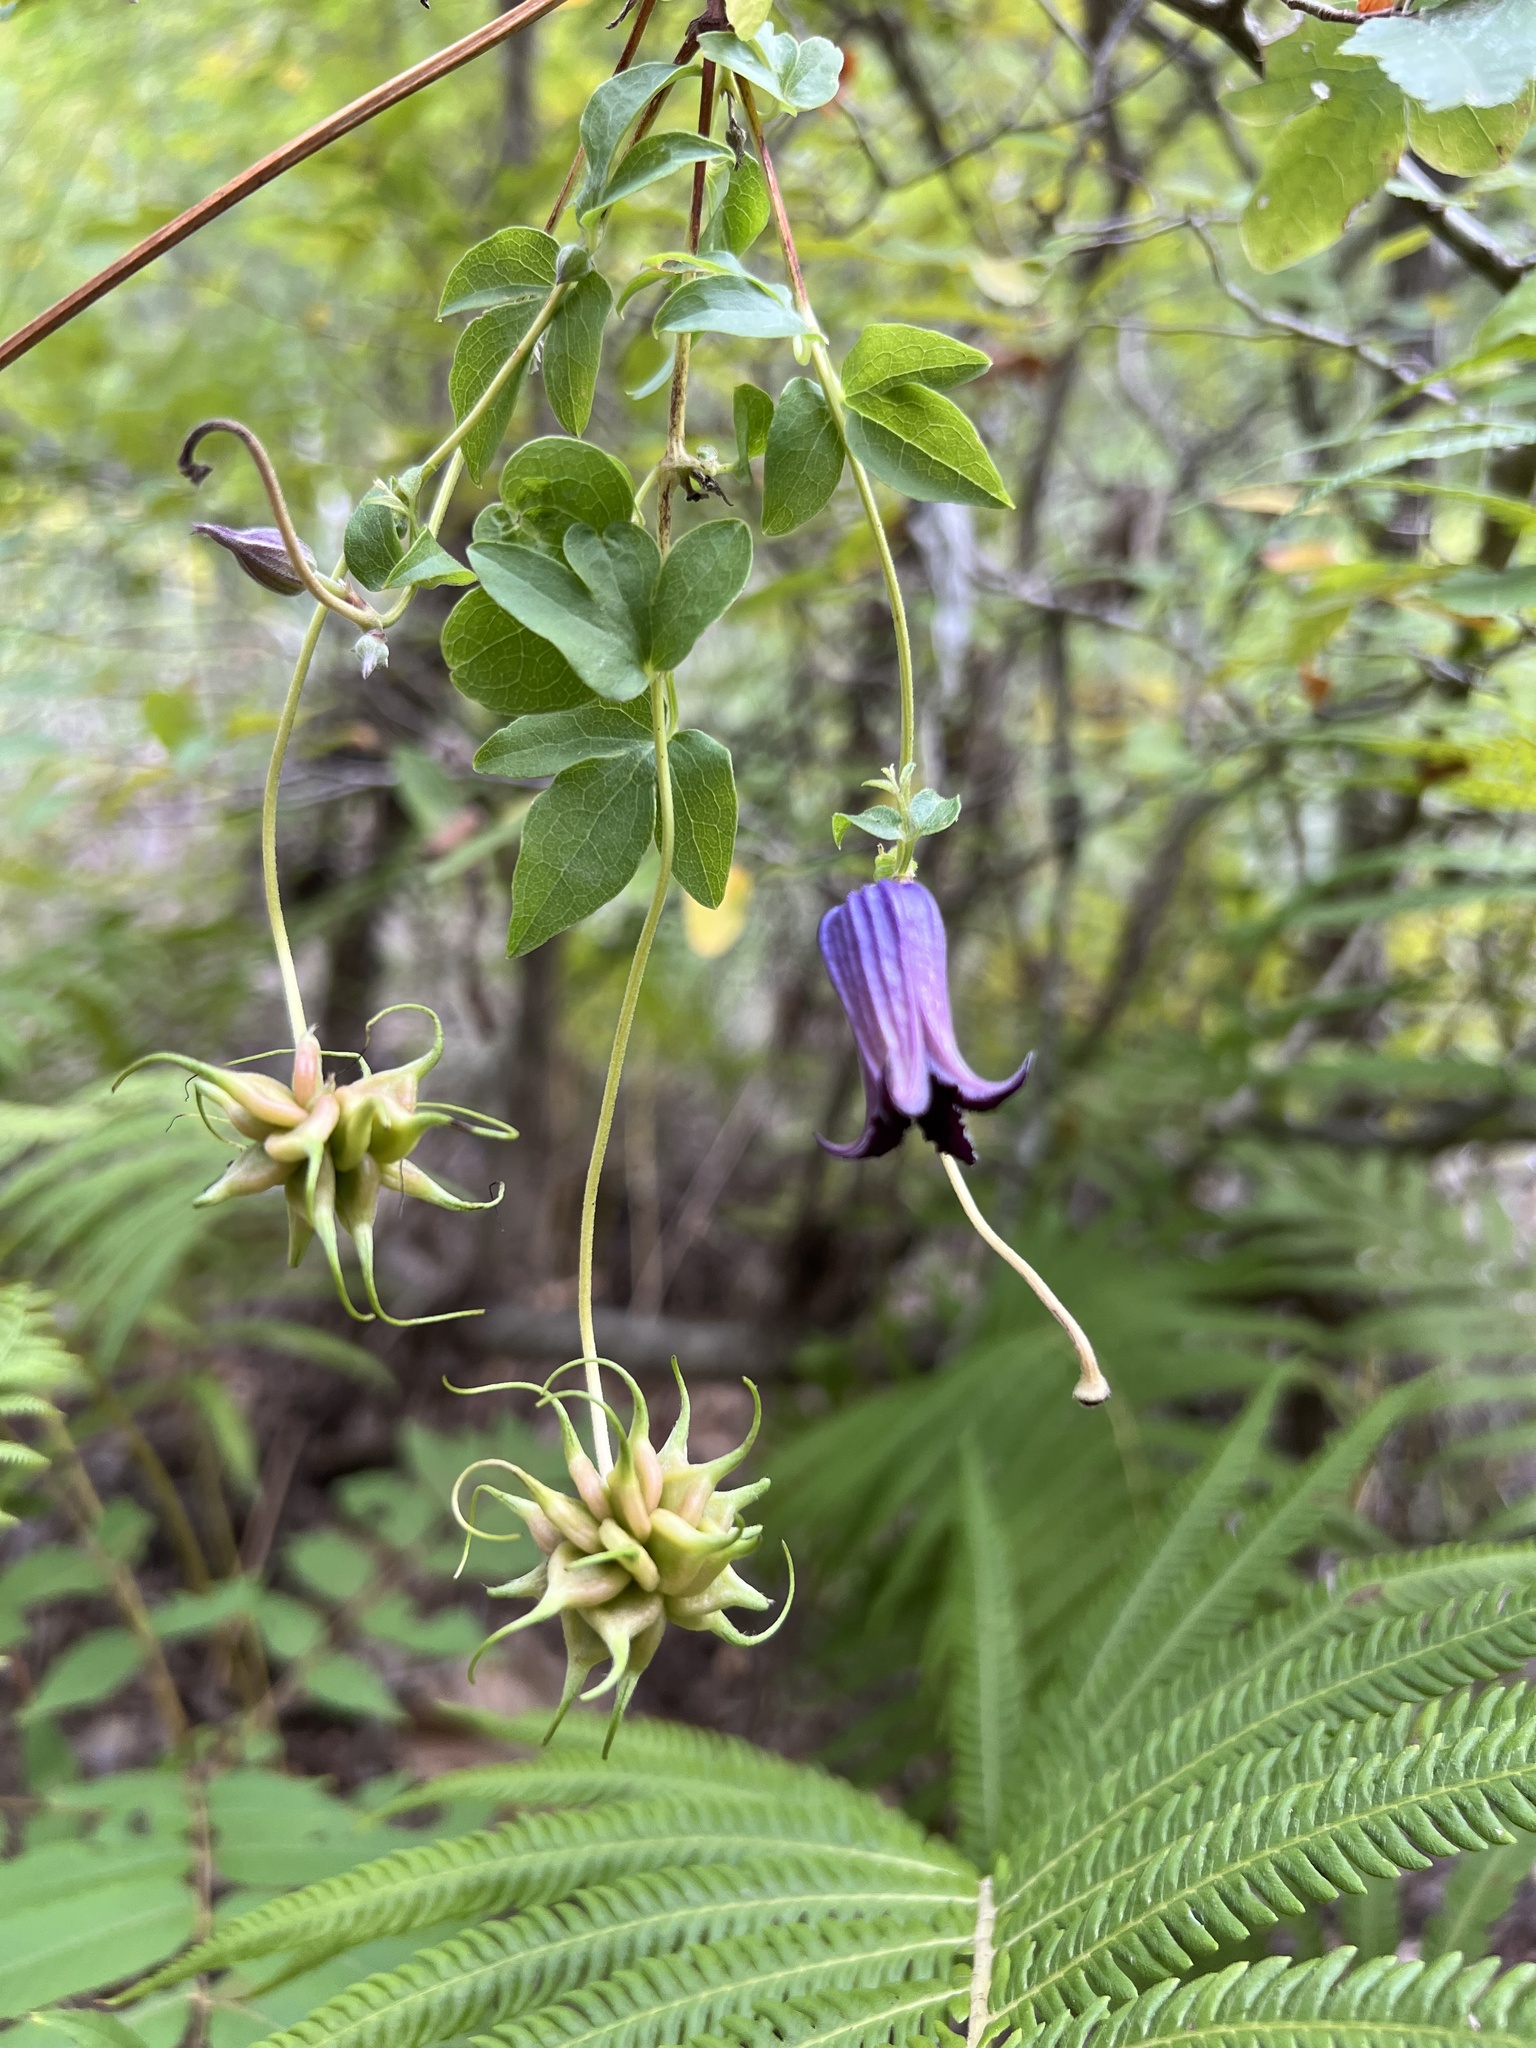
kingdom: Plantae
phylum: Tracheophyta
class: Magnoliopsida
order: Ranunculales
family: Ranunculaceae
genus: Clematis
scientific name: Clematis pitcheri
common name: Bellflower clematis
